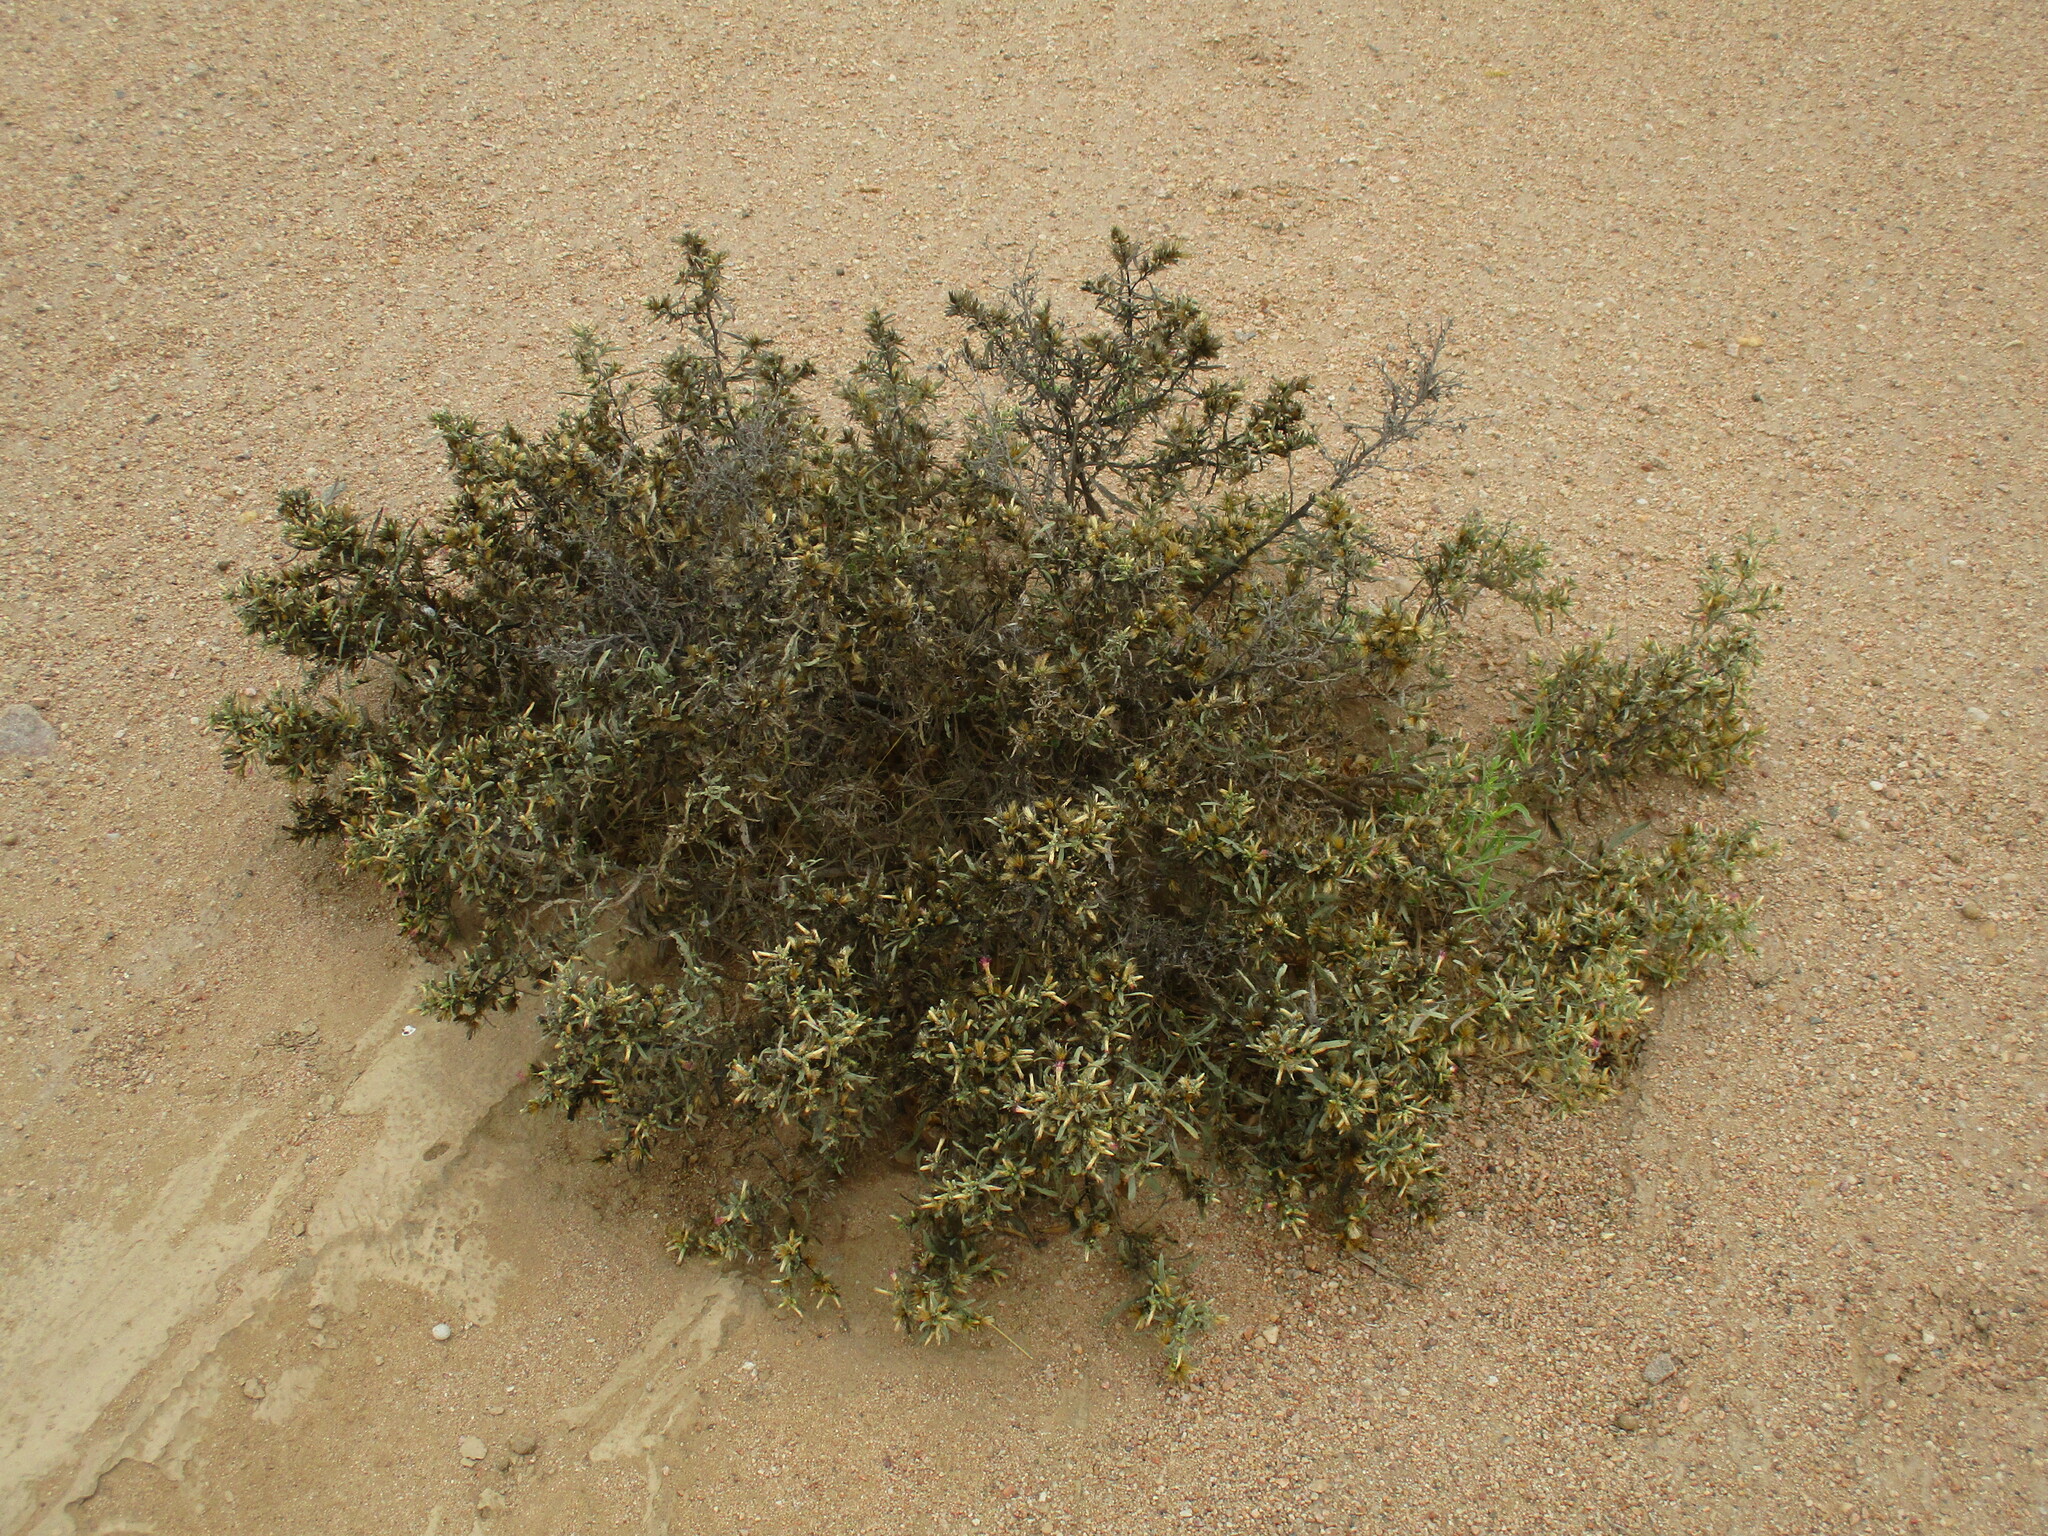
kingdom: Plantae
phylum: Tracheophyta
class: Magnoliopsida
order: Asterales
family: Asteraceae
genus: Pechuel-loeschea
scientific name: Pechuel-loeschea leubnitziae
